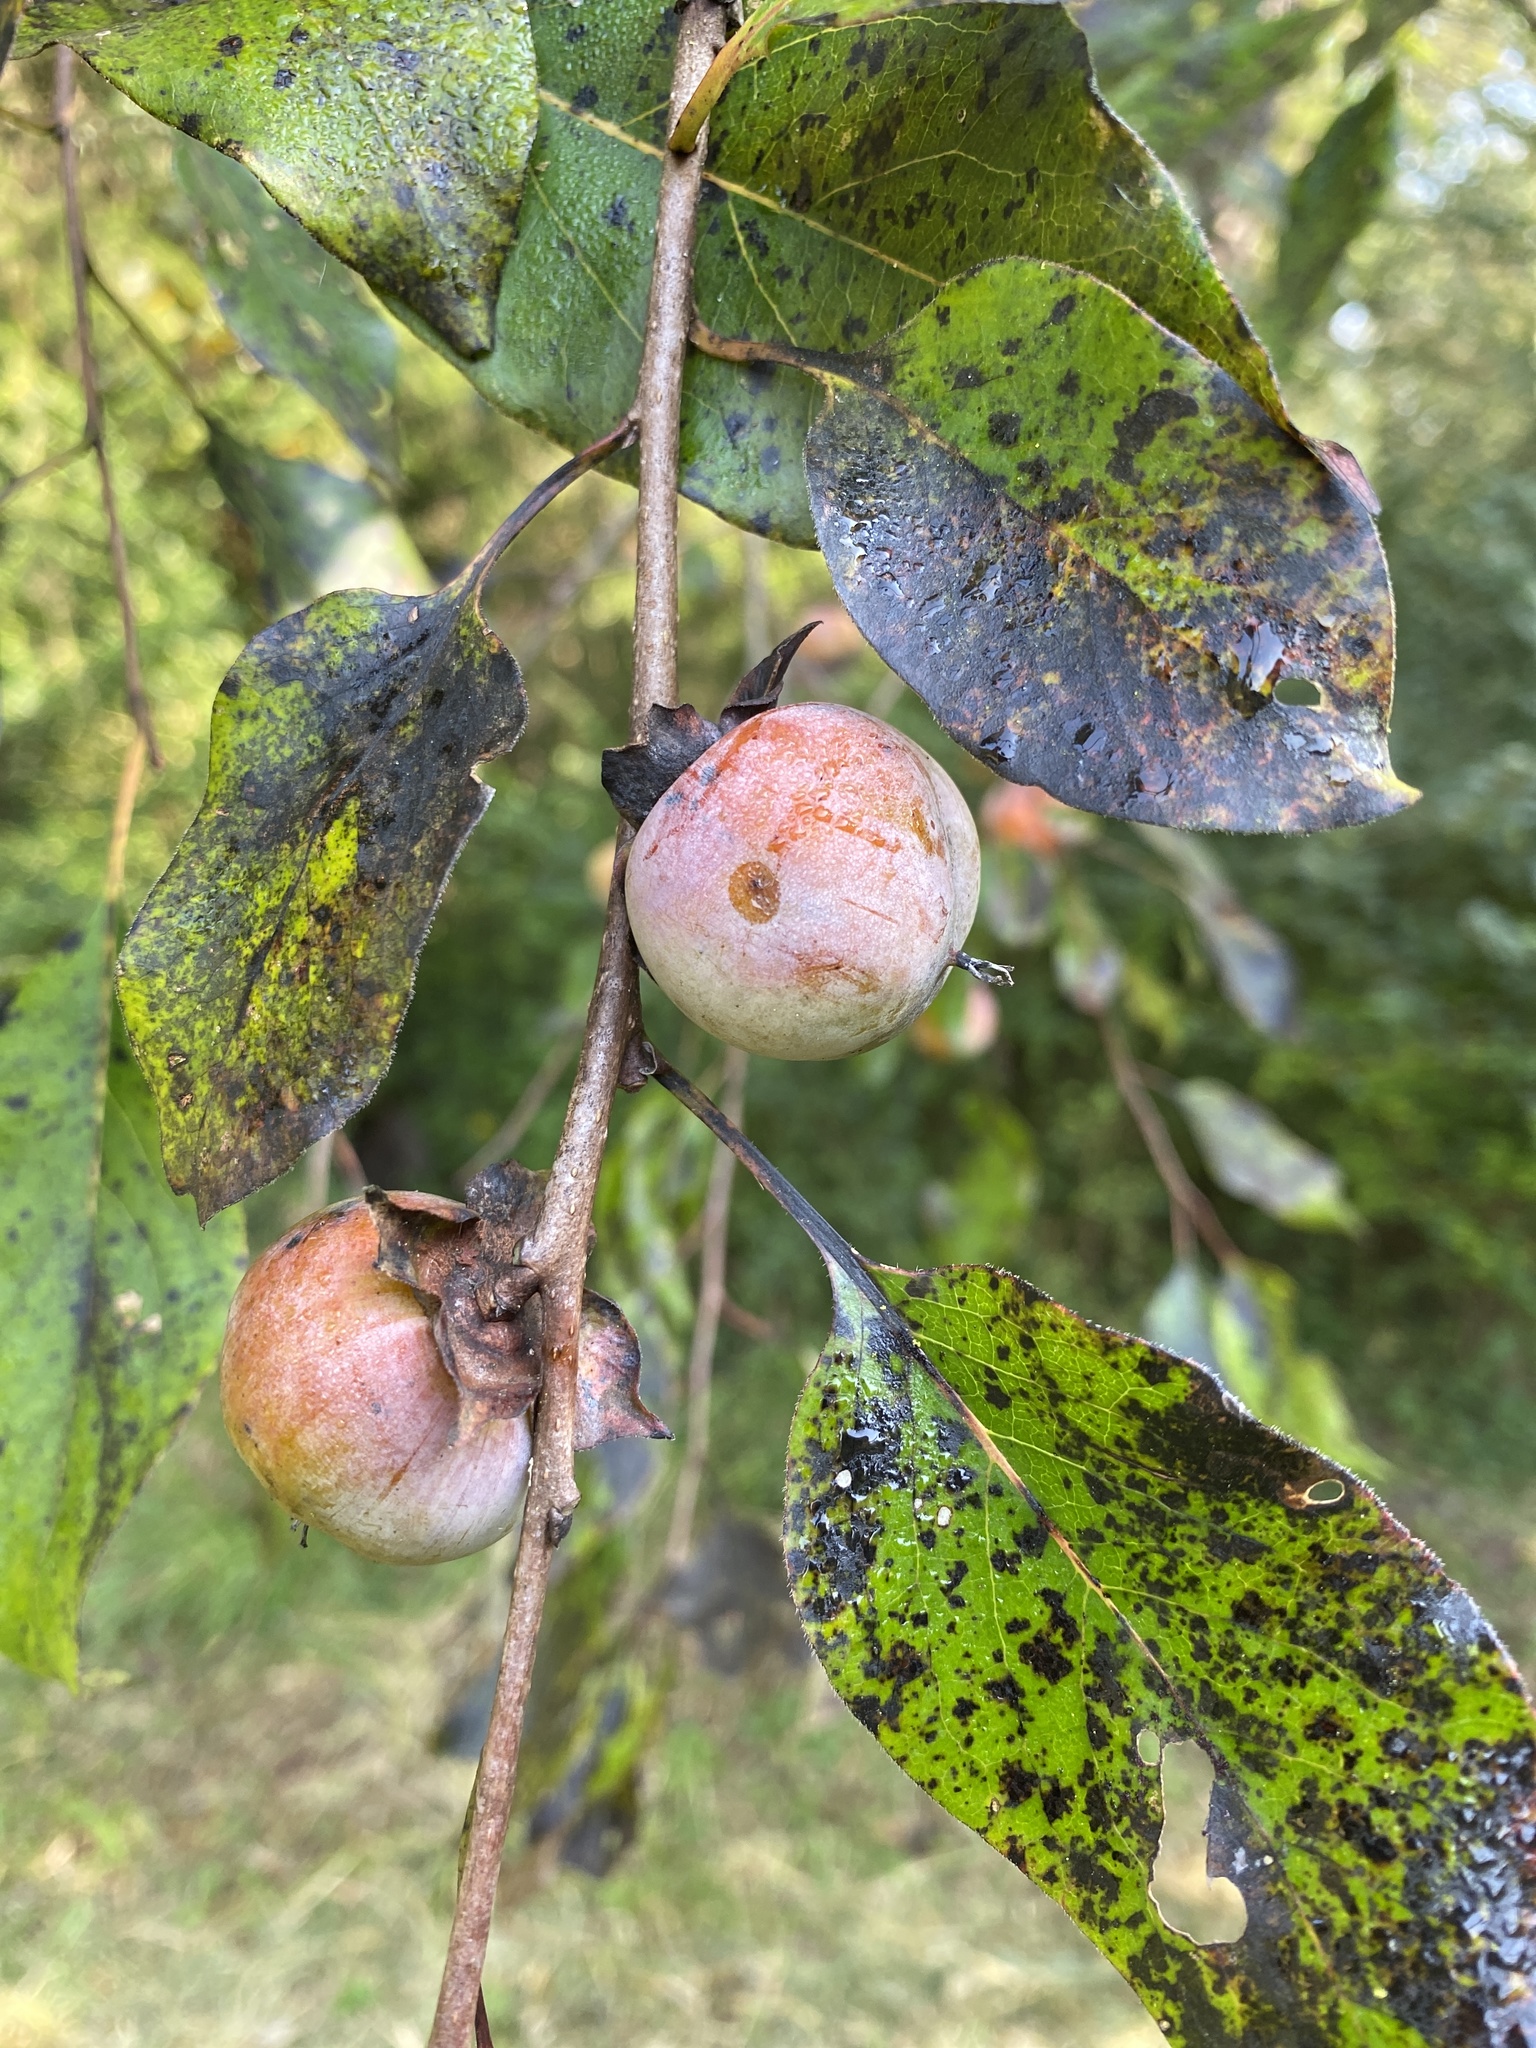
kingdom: Plantae
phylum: Tracheophyta
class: Magnoliopsida
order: Ericales
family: Ebenaceae
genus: Diospyros
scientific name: Diospyros virginiana
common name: Persimmon
